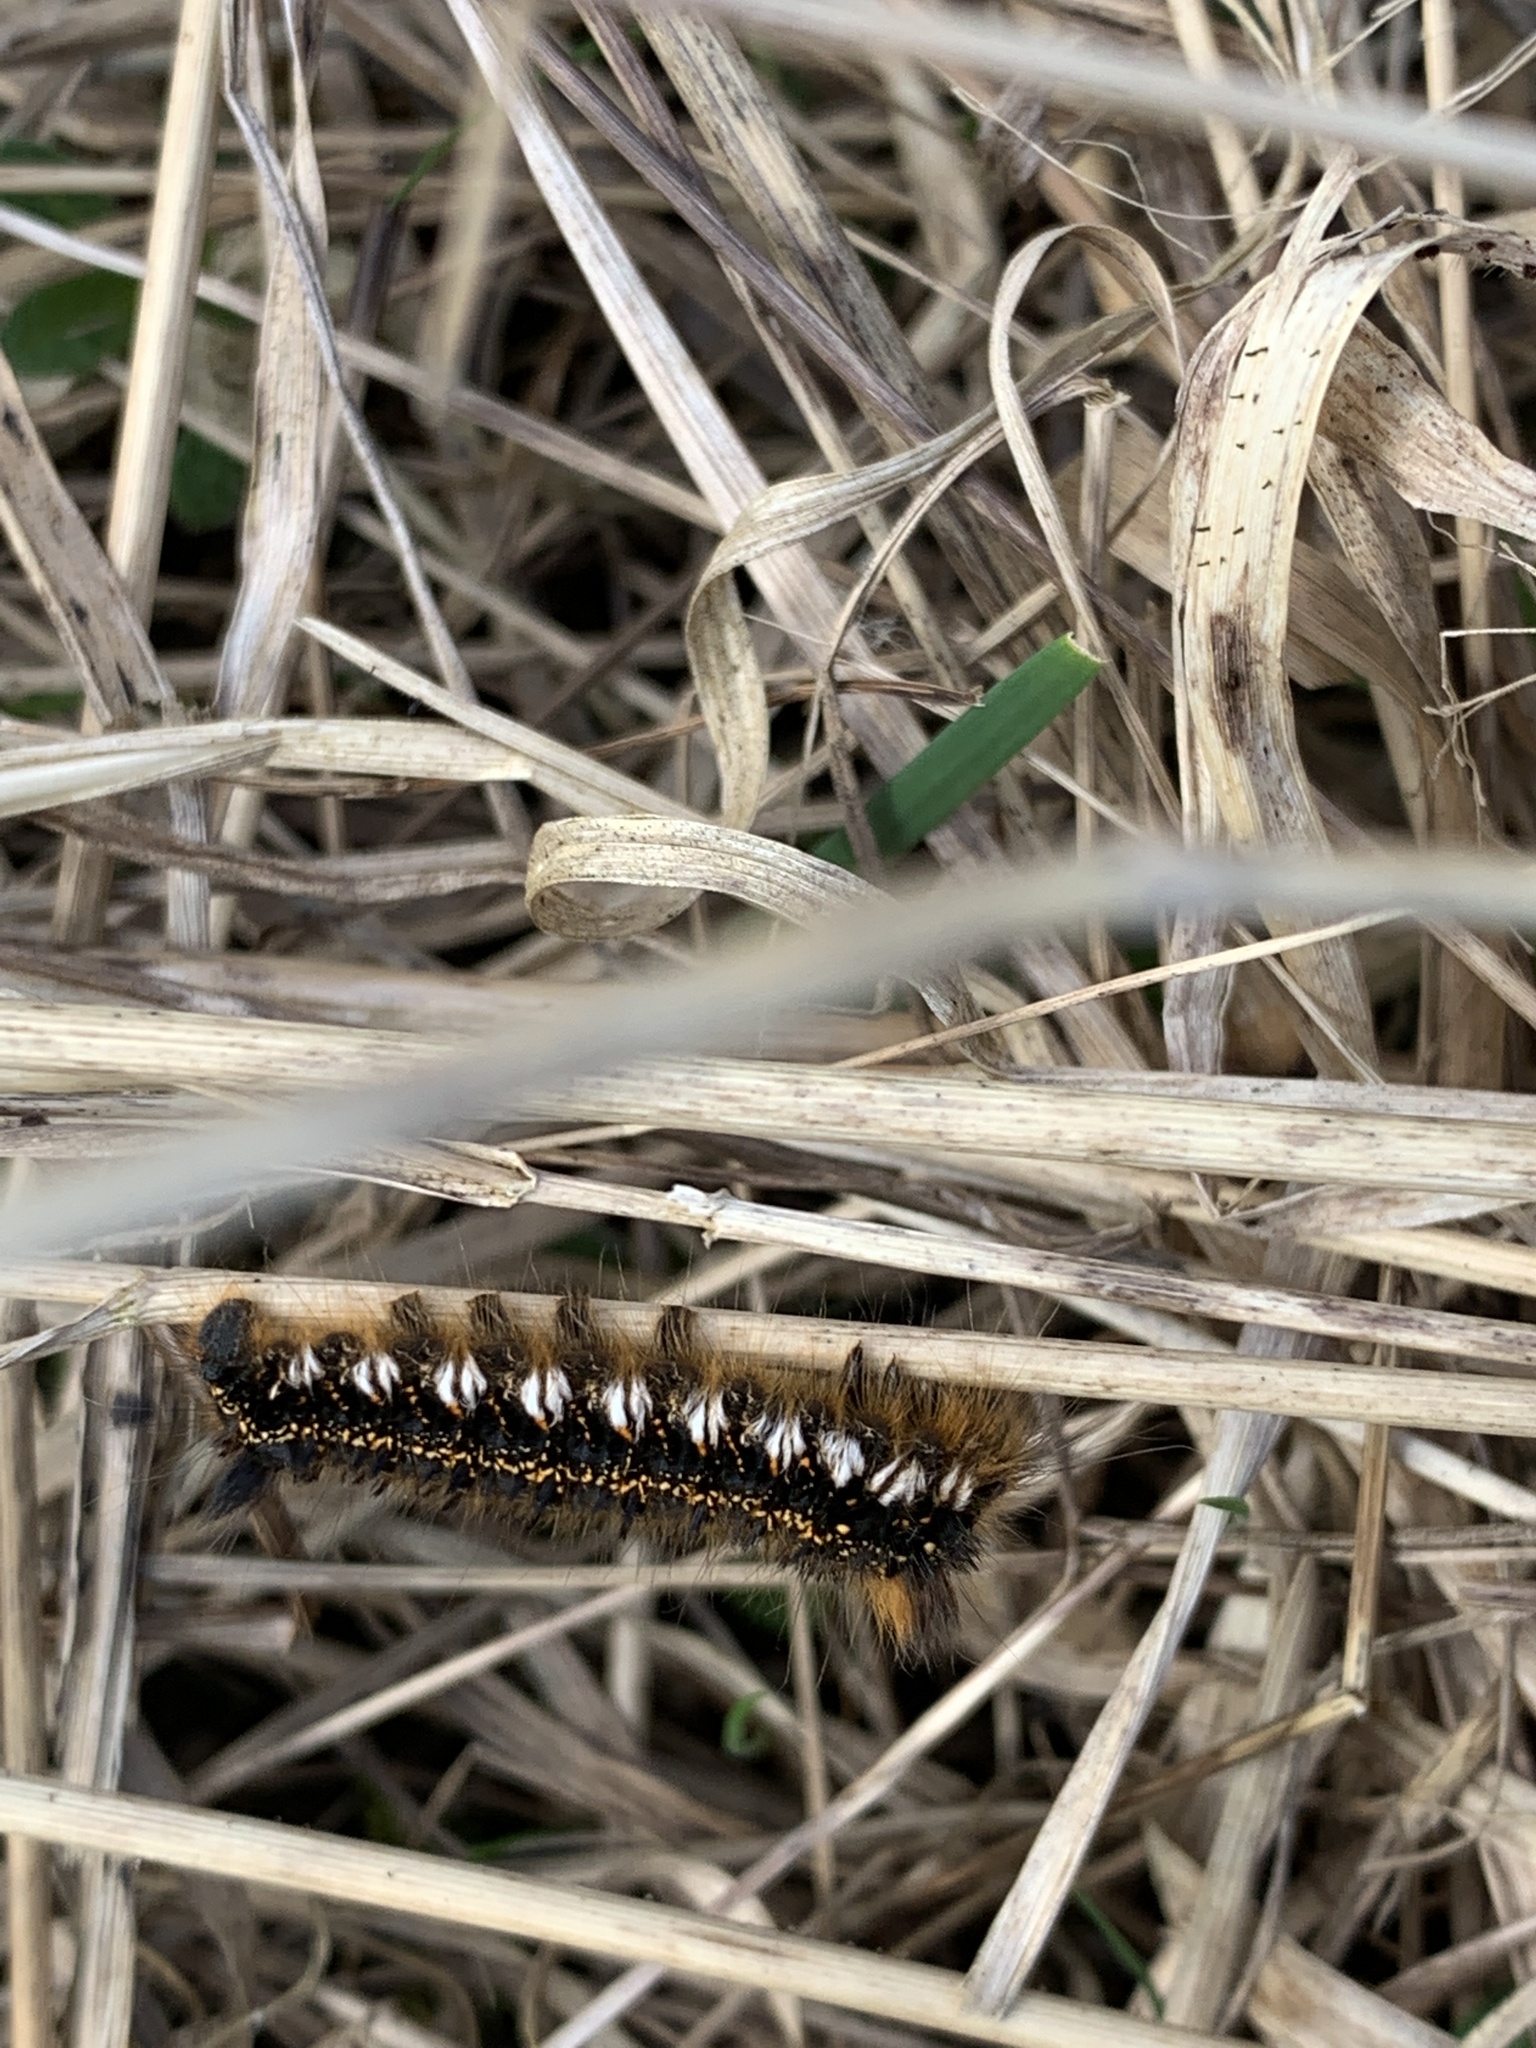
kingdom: Animalia
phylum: Arthropoda
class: Insecta
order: Lepidoptera
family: Lasiocampidae
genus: Euthrix
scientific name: Euthrix potatoria
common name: Drinker
